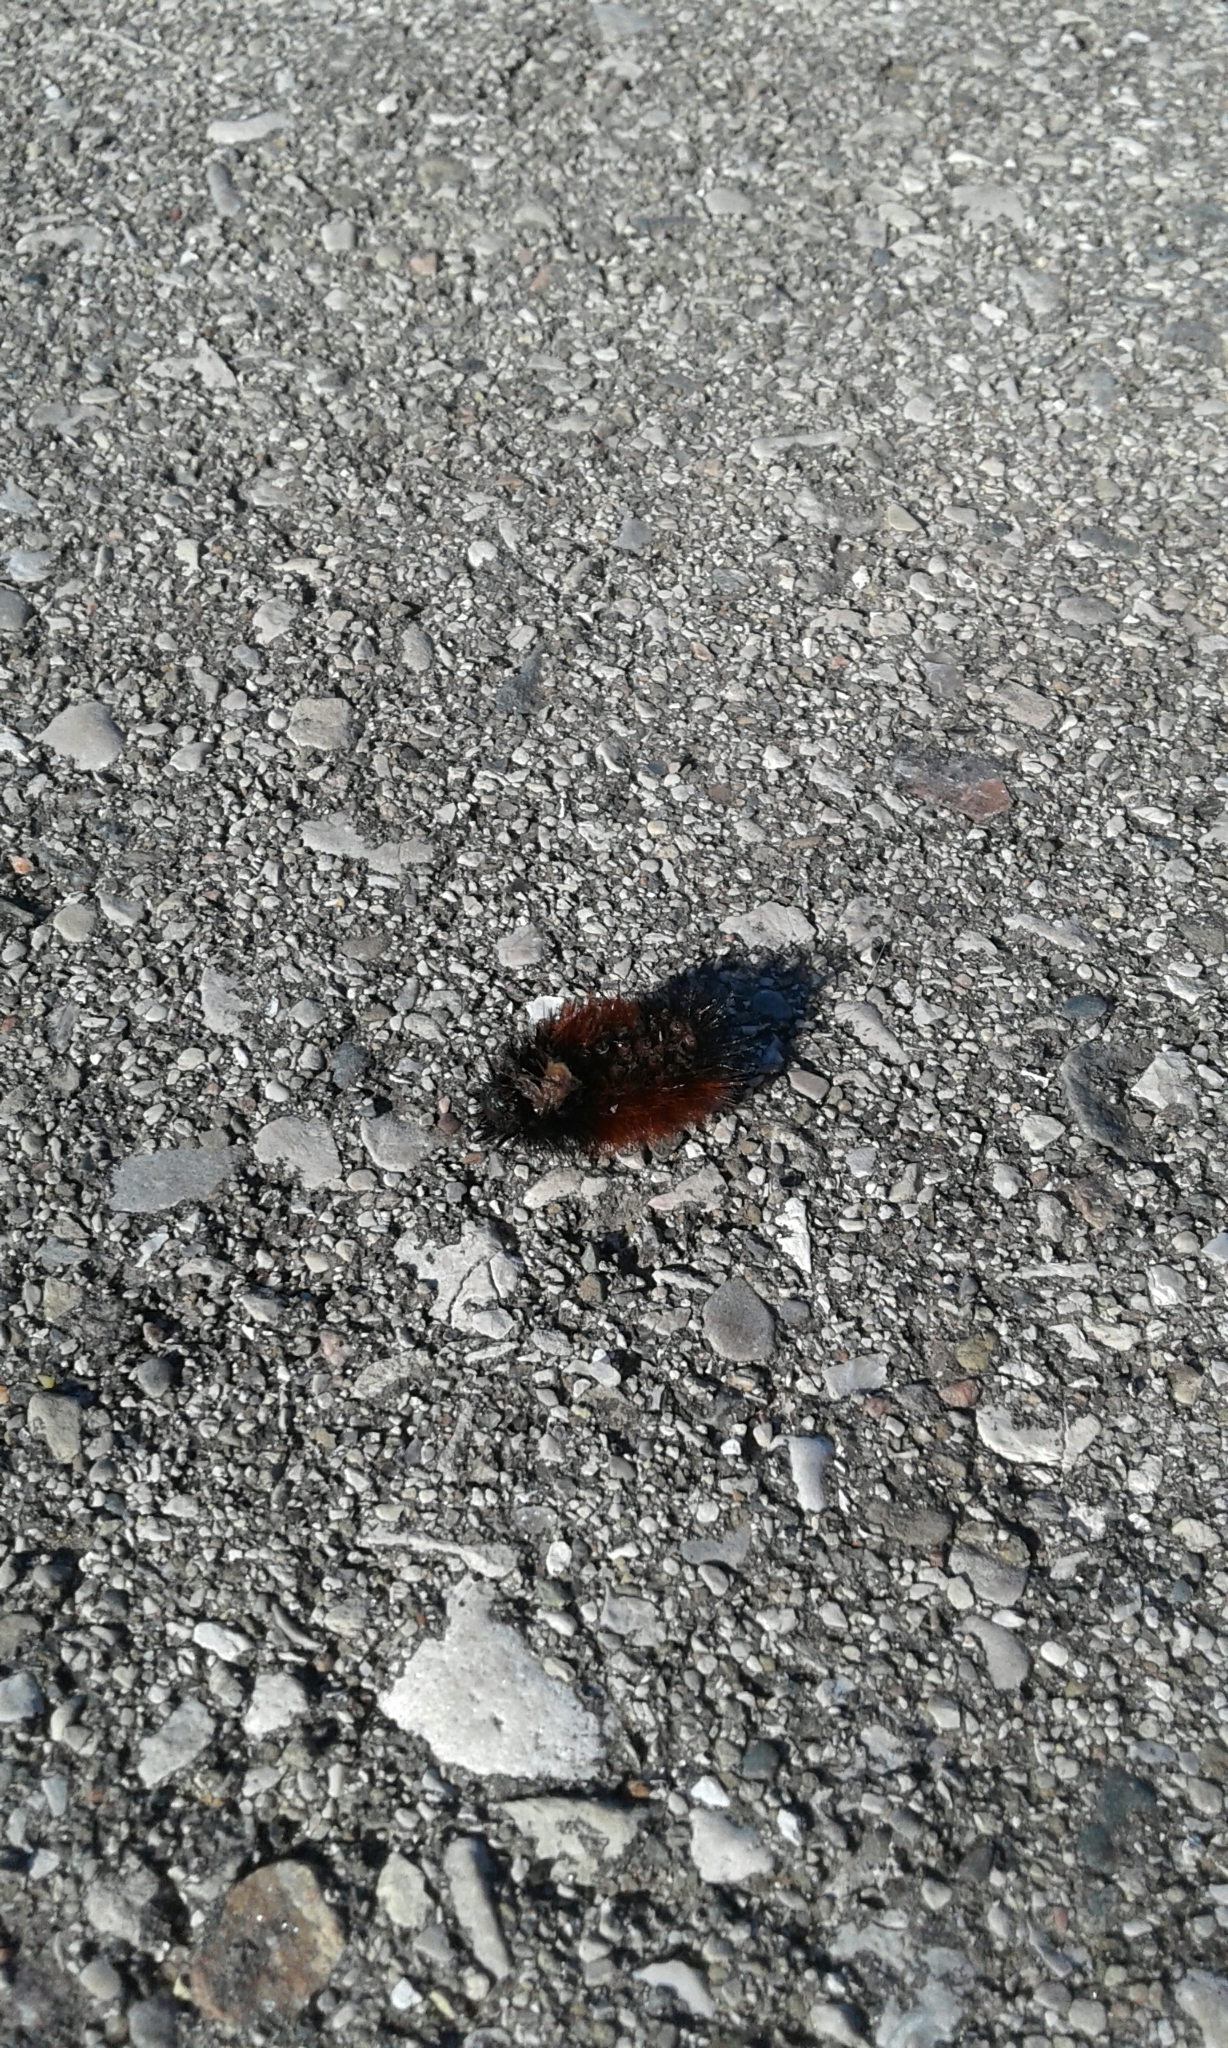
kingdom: Animalia
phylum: Arthropoda
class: Insecta
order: Lepidoptera
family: Erebidae
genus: Pyrrharctia
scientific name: Pyrrharctia isabella
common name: Isabella tiger moth
